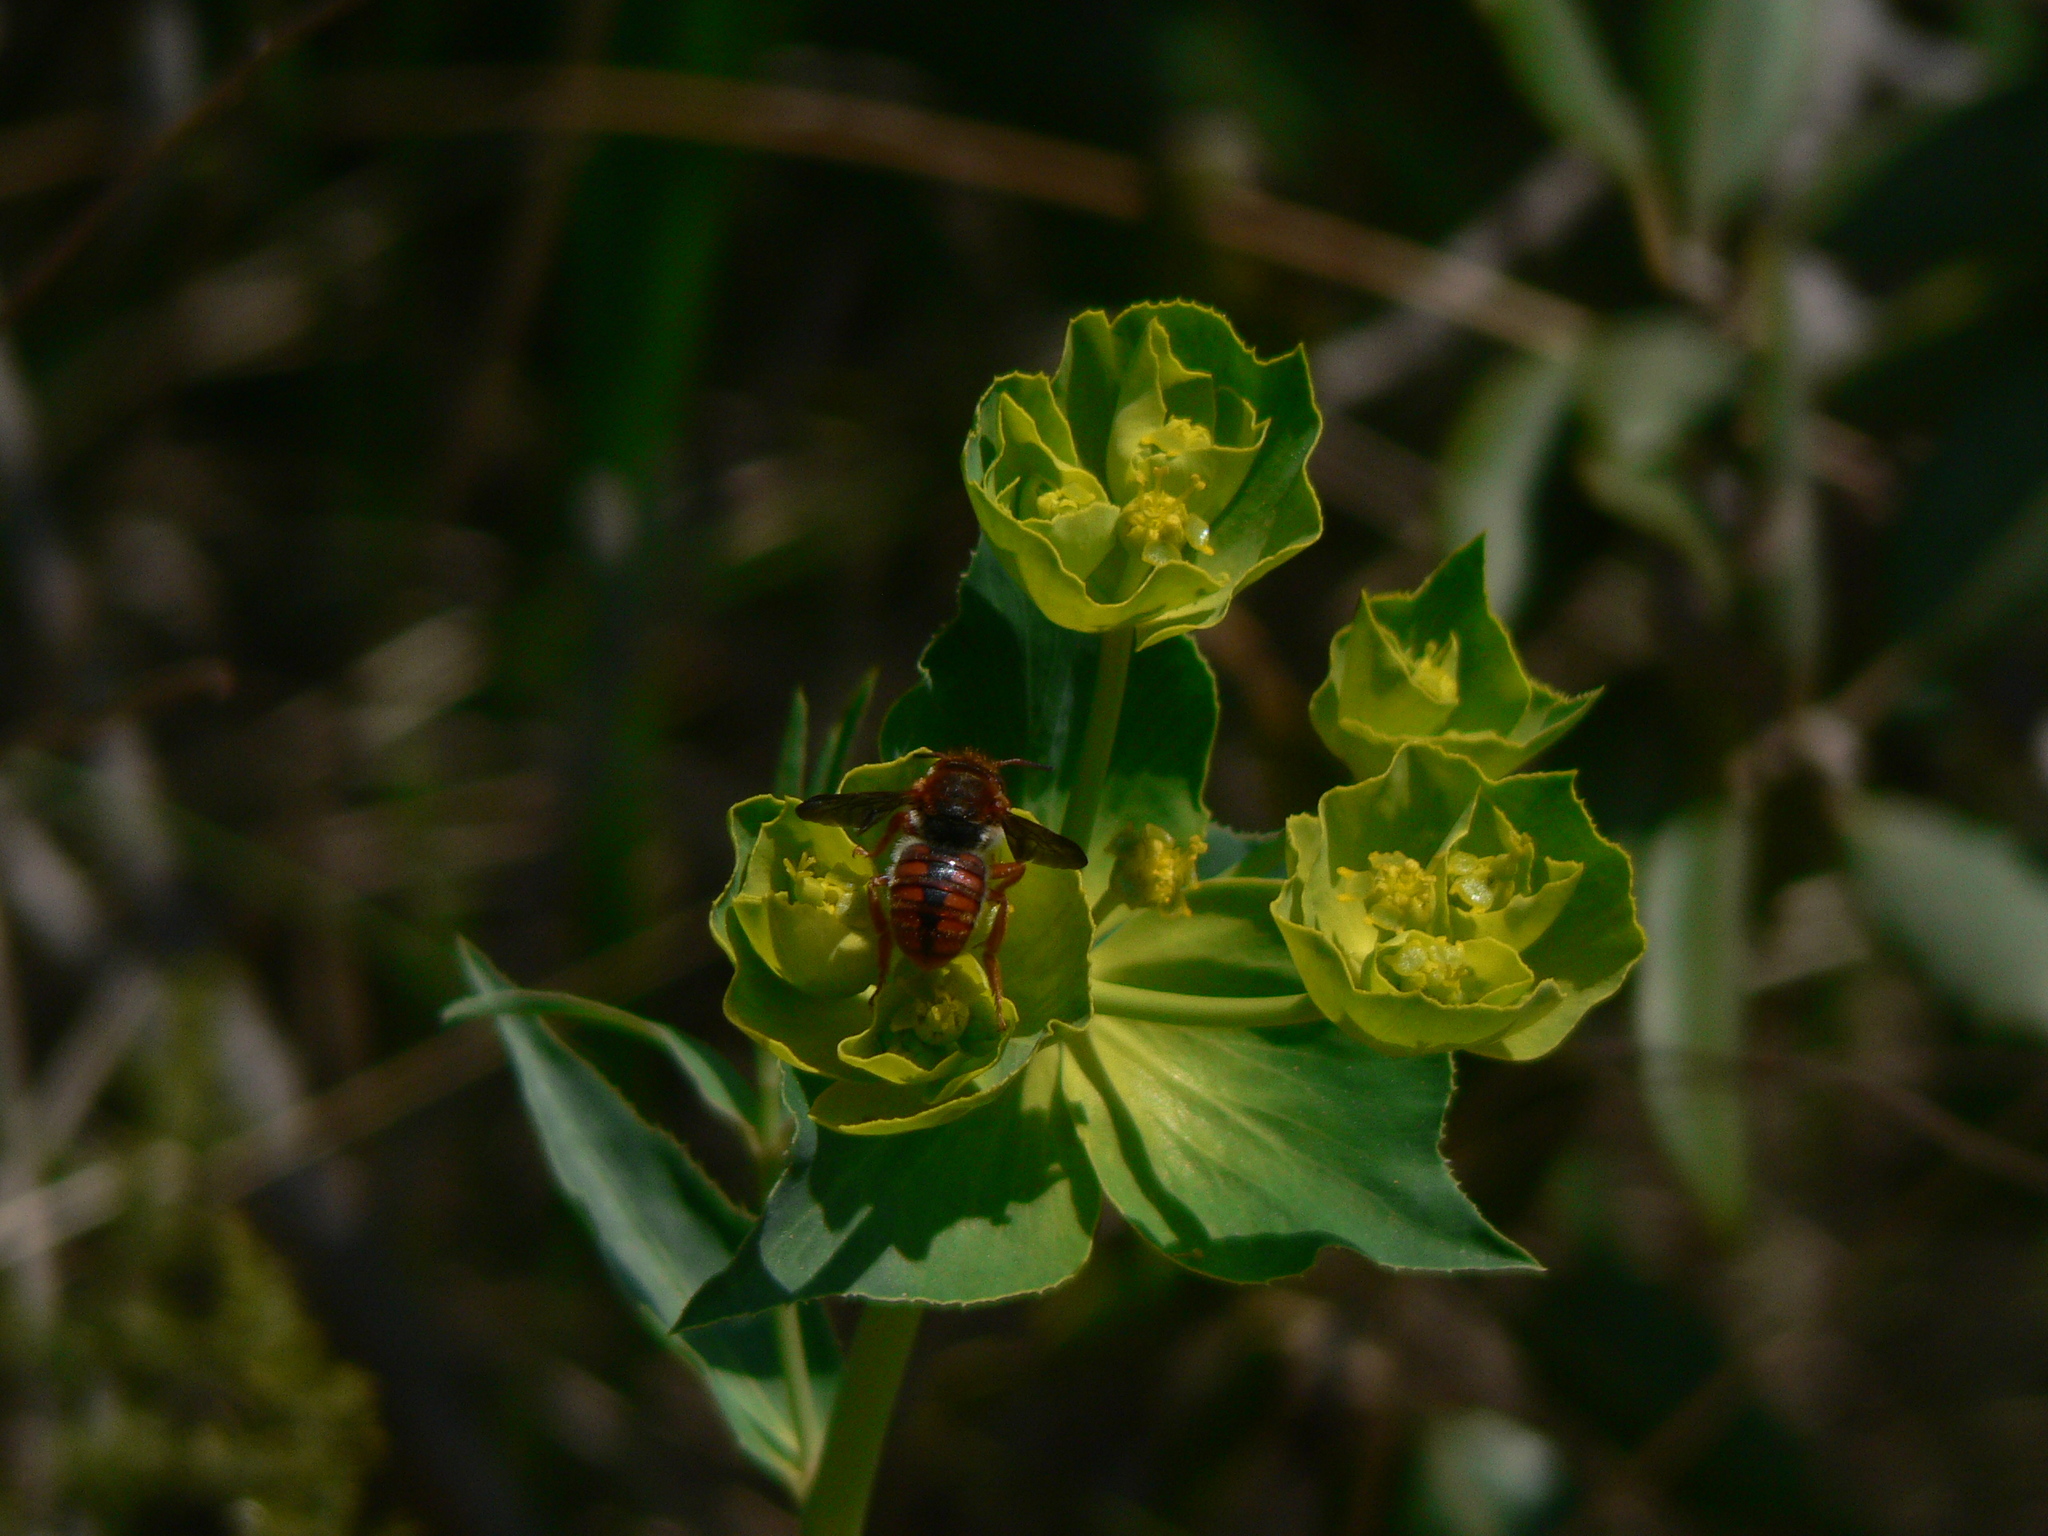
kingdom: Animalia
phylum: Arthropoda
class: Insecta
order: Hymenoptera
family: Megachilidae
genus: Rhodanthidium
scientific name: Rhodanthidium sticticum
